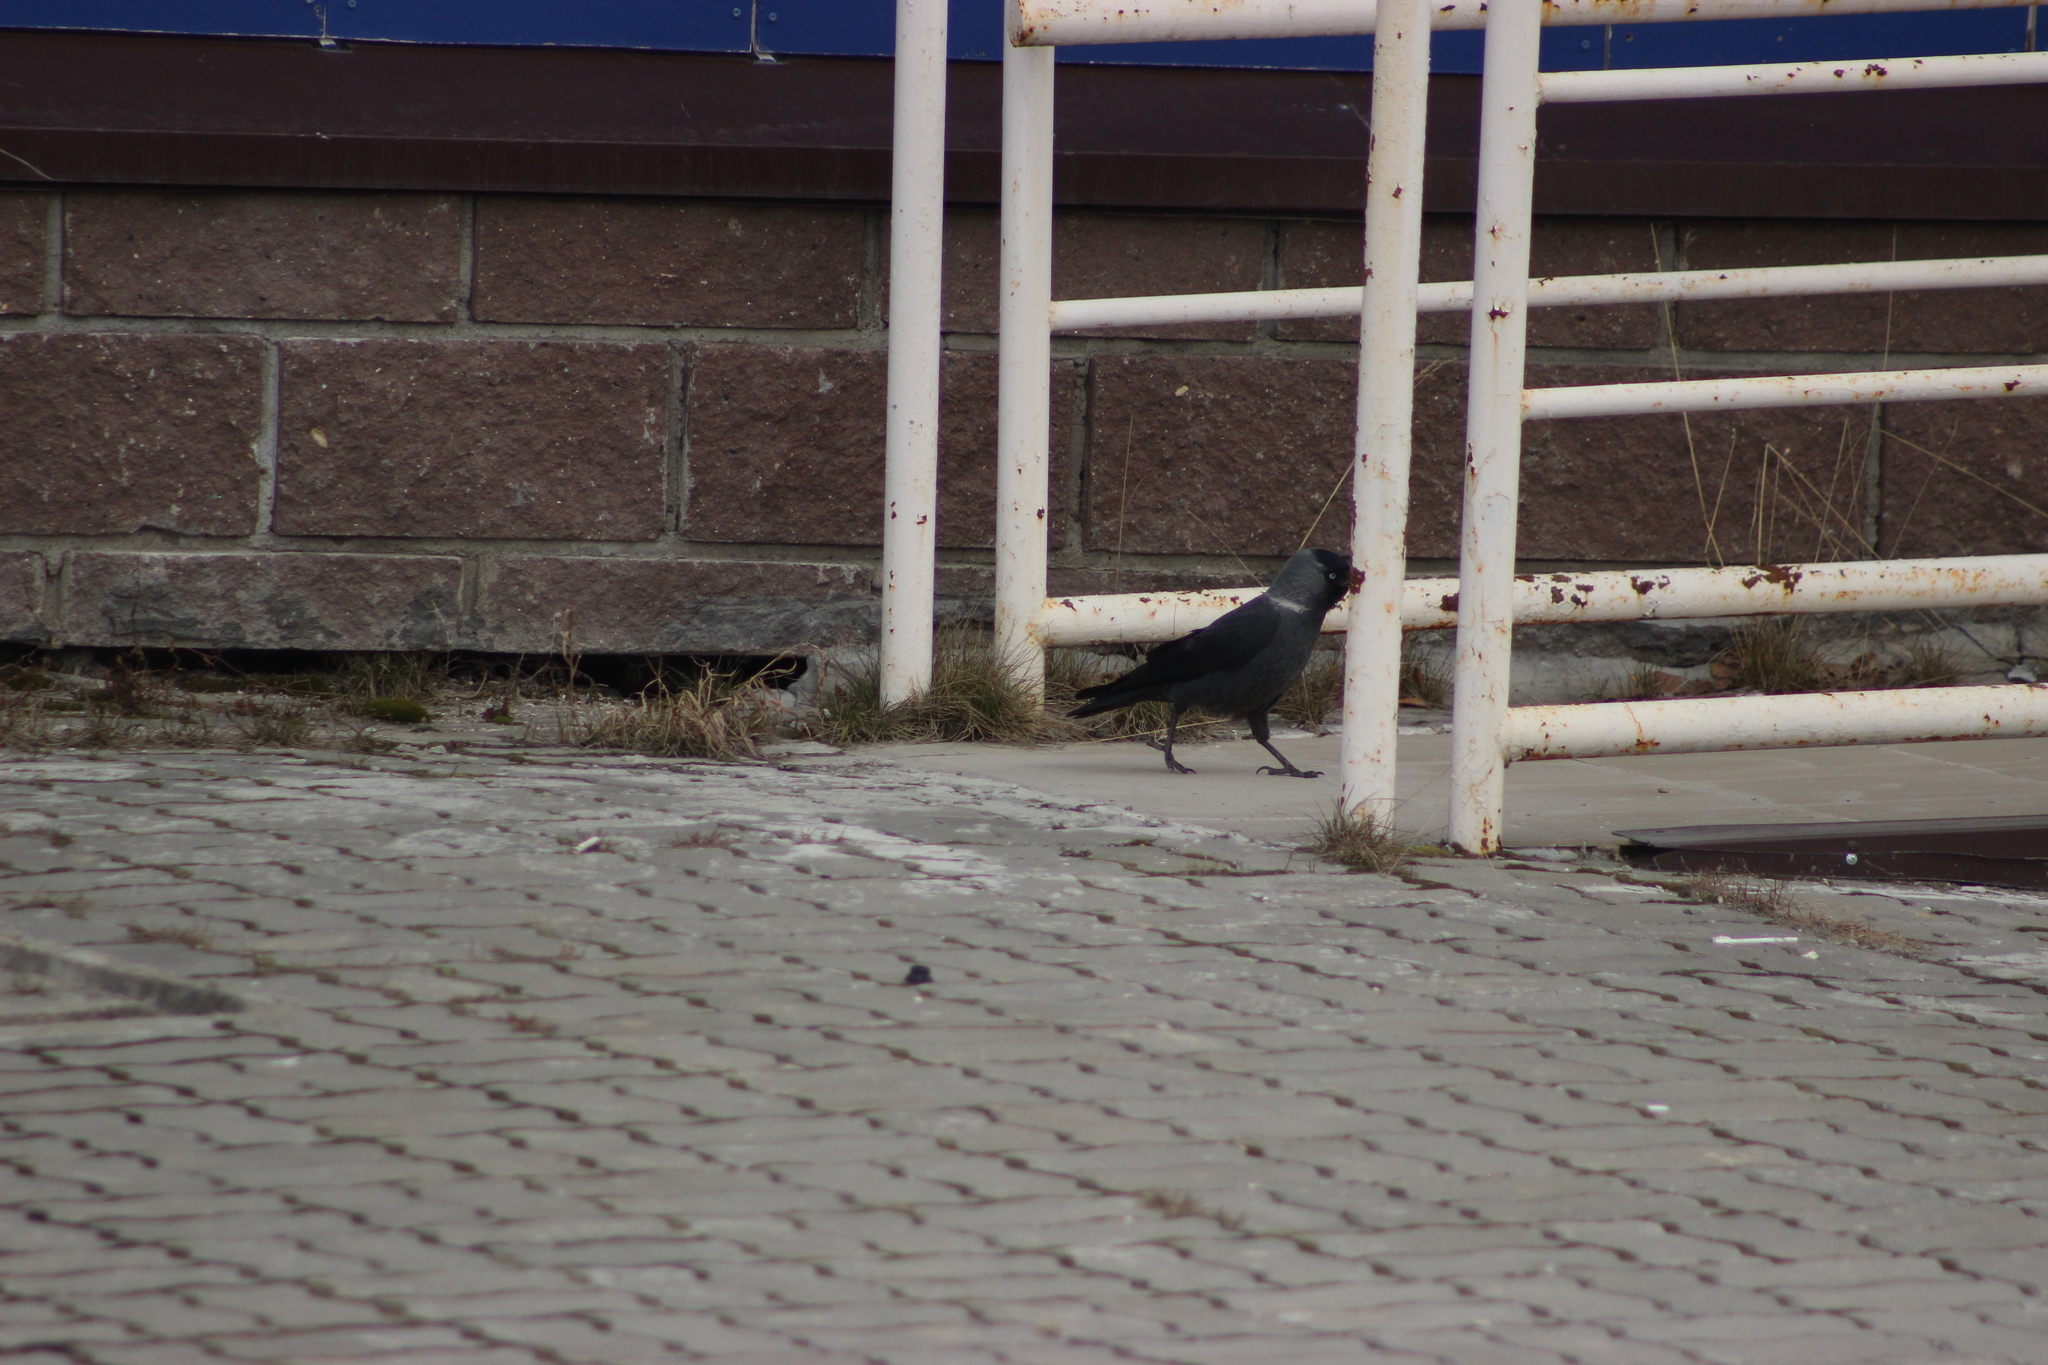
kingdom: Animalia
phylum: Chordata
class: Aves
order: Passeriformes
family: Corvidae
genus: Coloeus
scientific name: Coloeus monedula
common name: Western jackdaw
